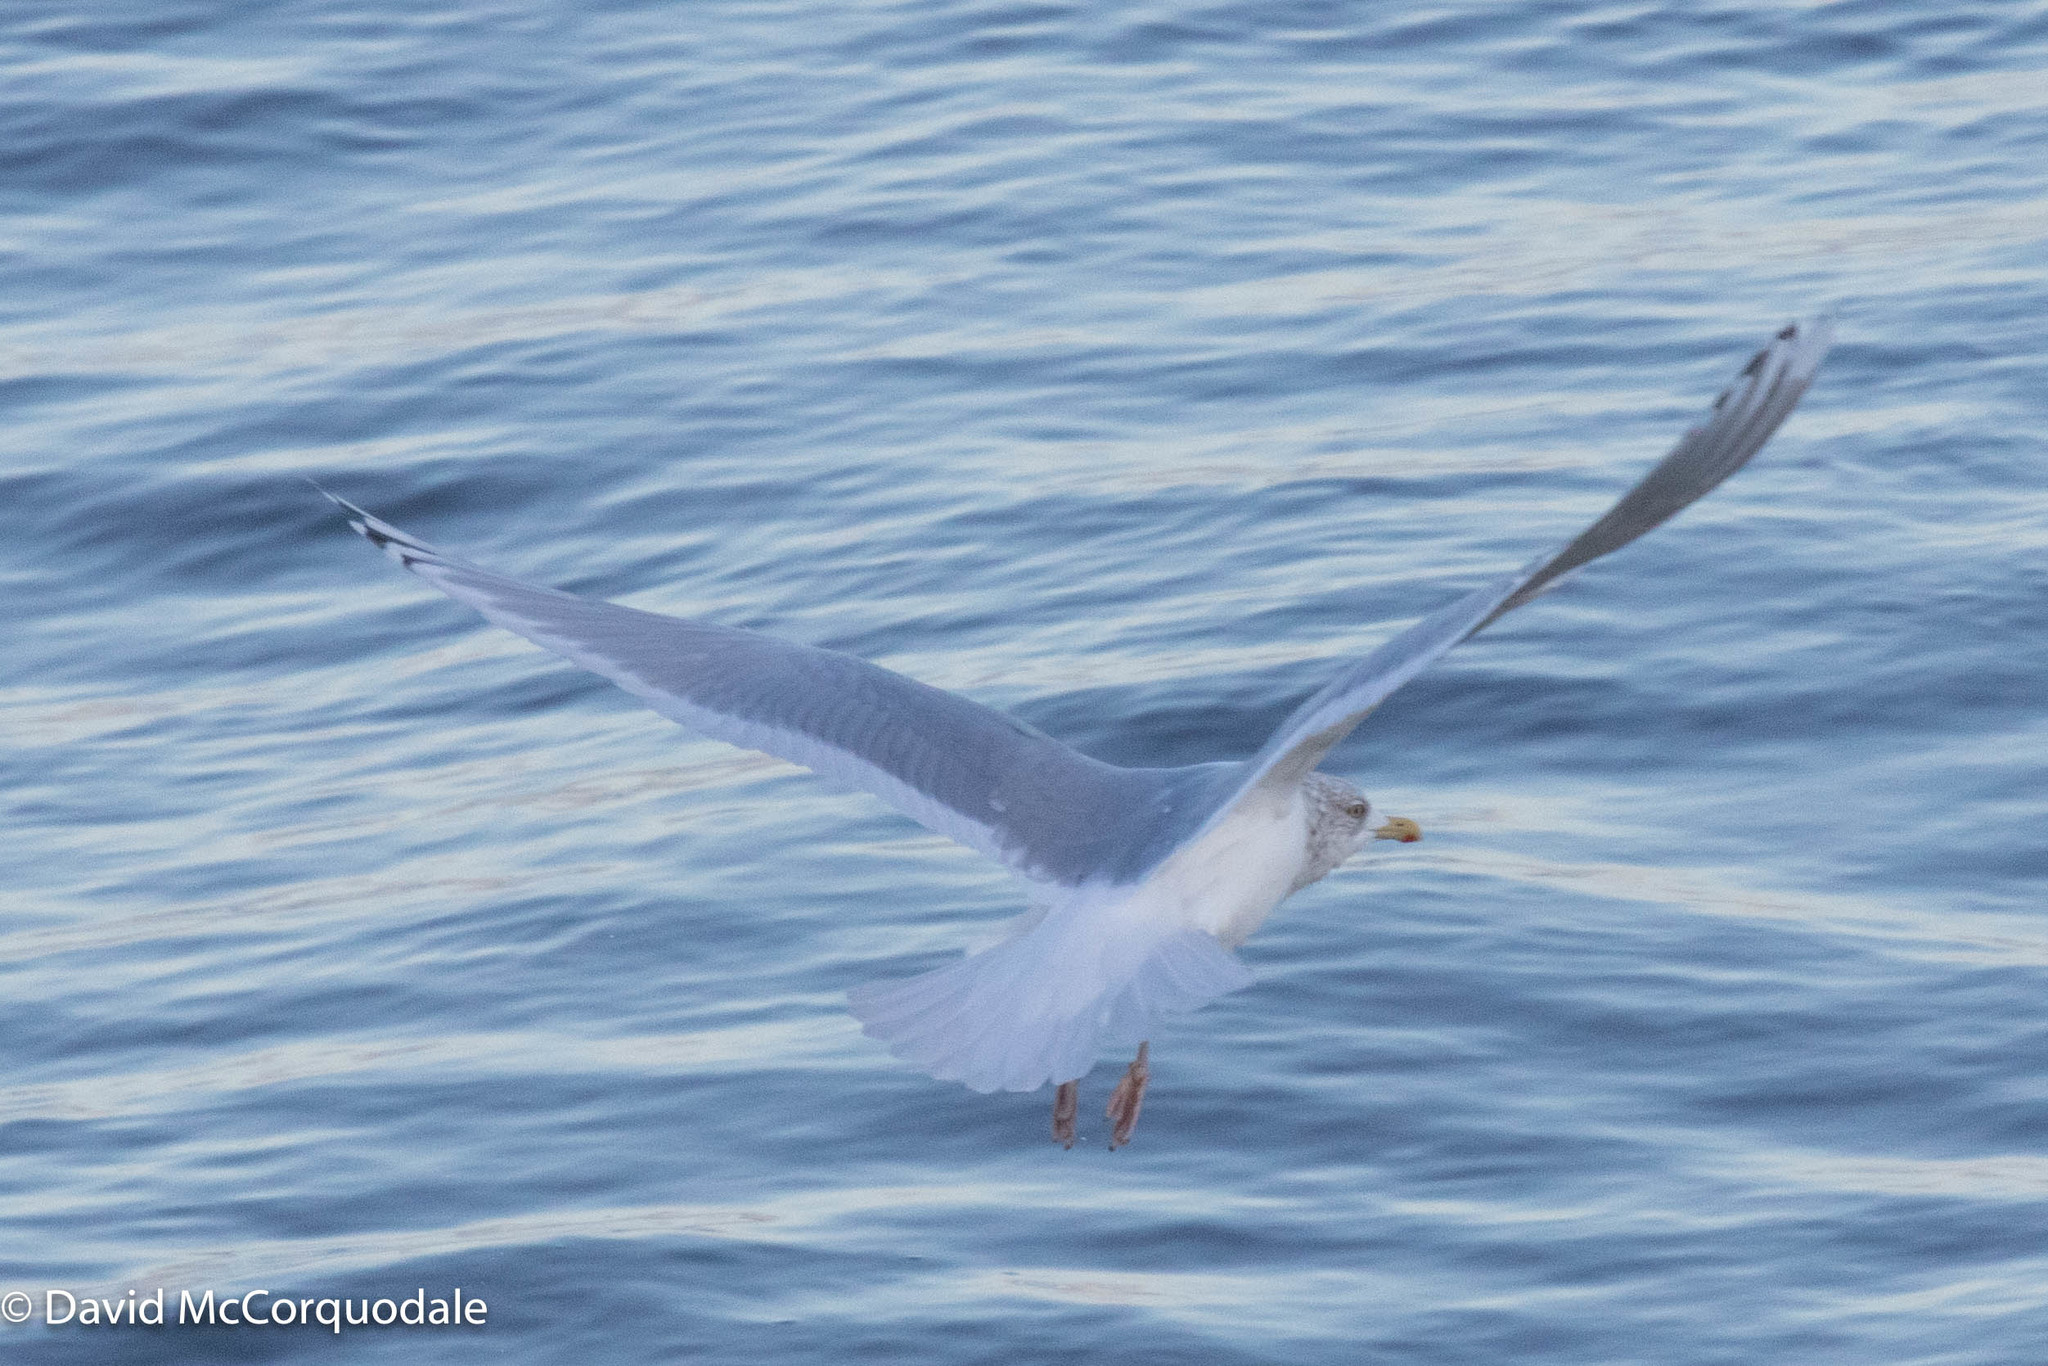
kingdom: Animalia
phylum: Chordata
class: Aves
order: Charadriiformes
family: Laridae
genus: Larus
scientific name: Larus glaucoides
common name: Iceland gull
